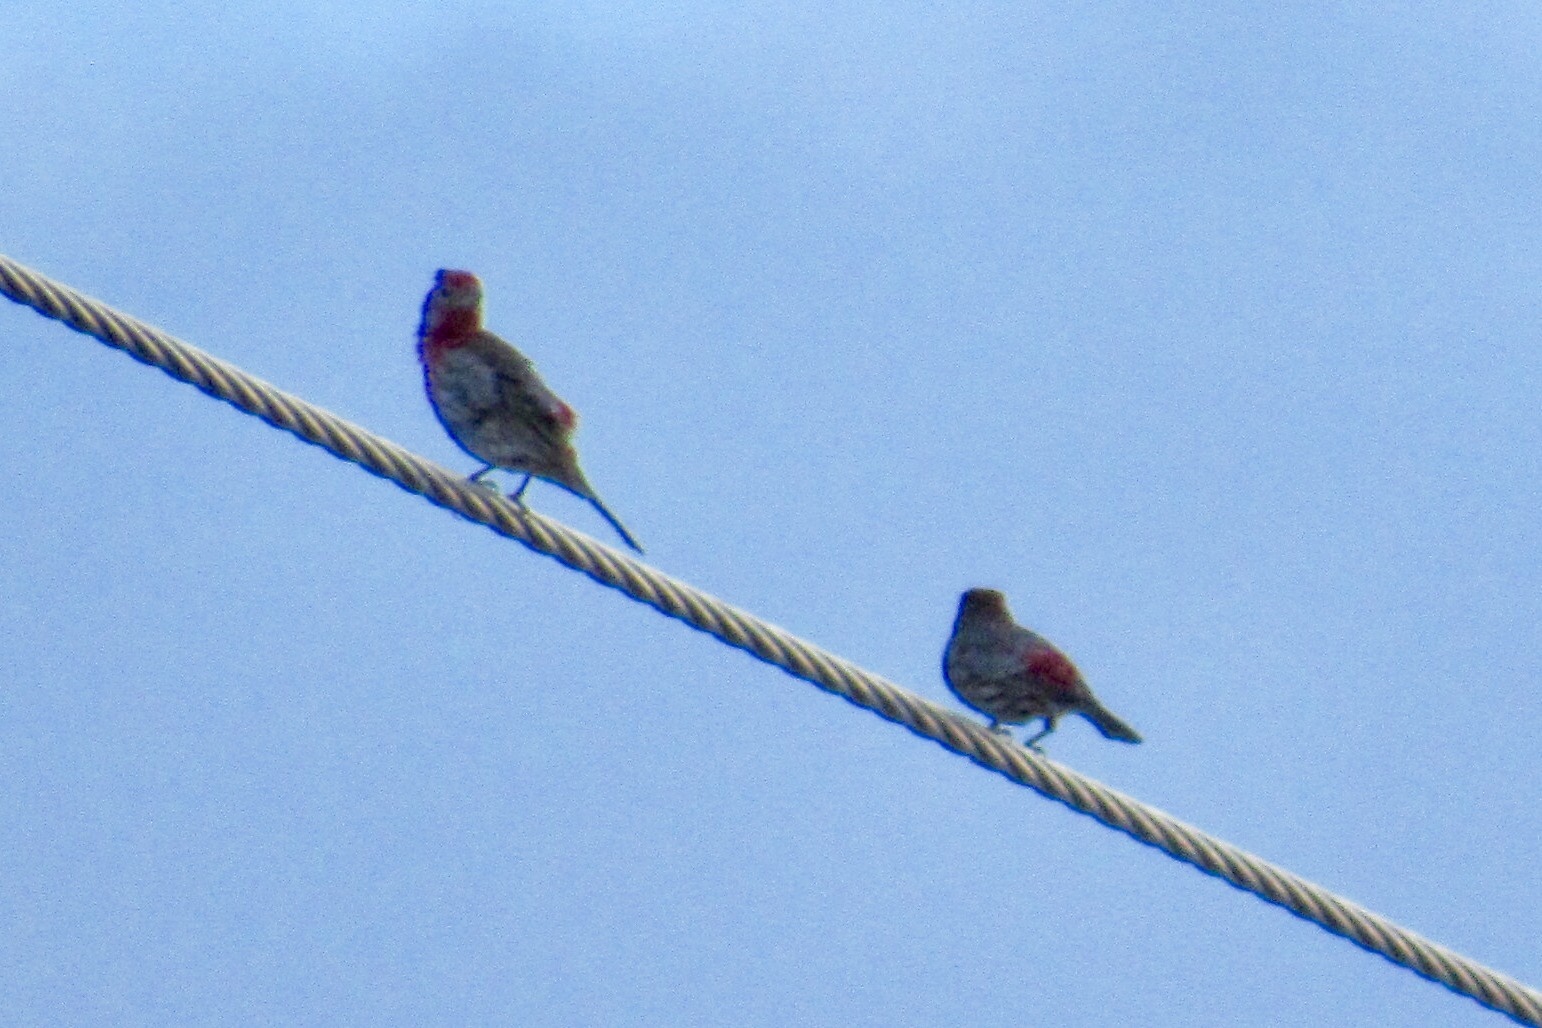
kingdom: Animalia
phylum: Chordata
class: Aves
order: Passeriformes
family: Fringillidae
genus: Haemorhous
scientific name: Haemorhous mexicanus
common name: House finch
